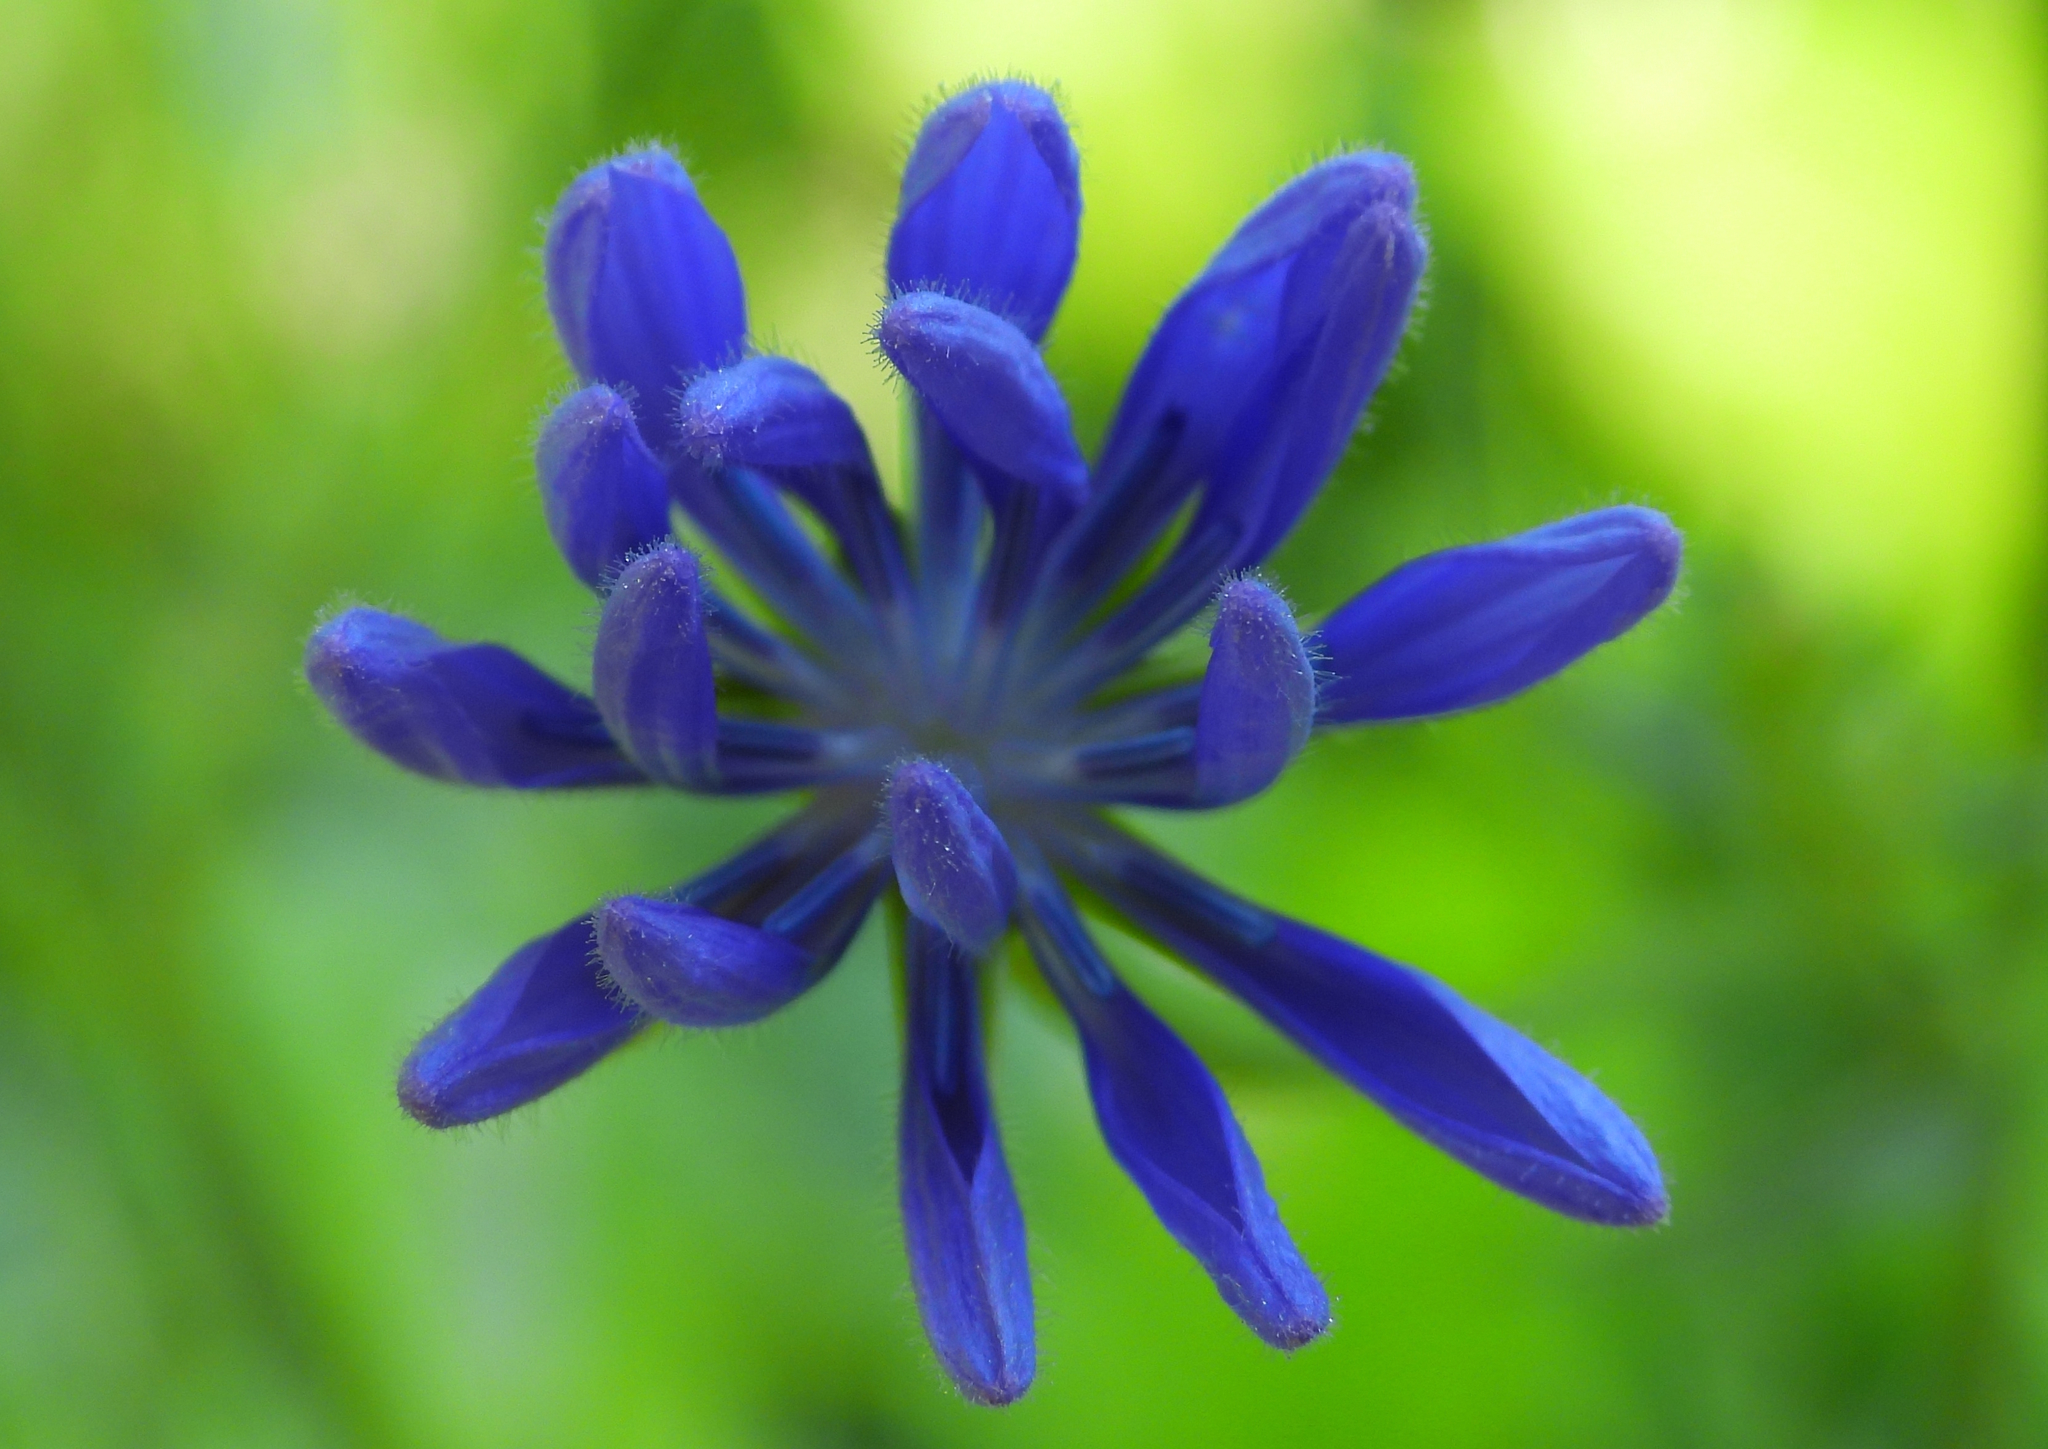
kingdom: Plantae
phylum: Tracheophyta
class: Magnoliopsida
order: Asterales
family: Asteraceae
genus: Cichorium
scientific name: Cichorium intybus
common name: Chicory
